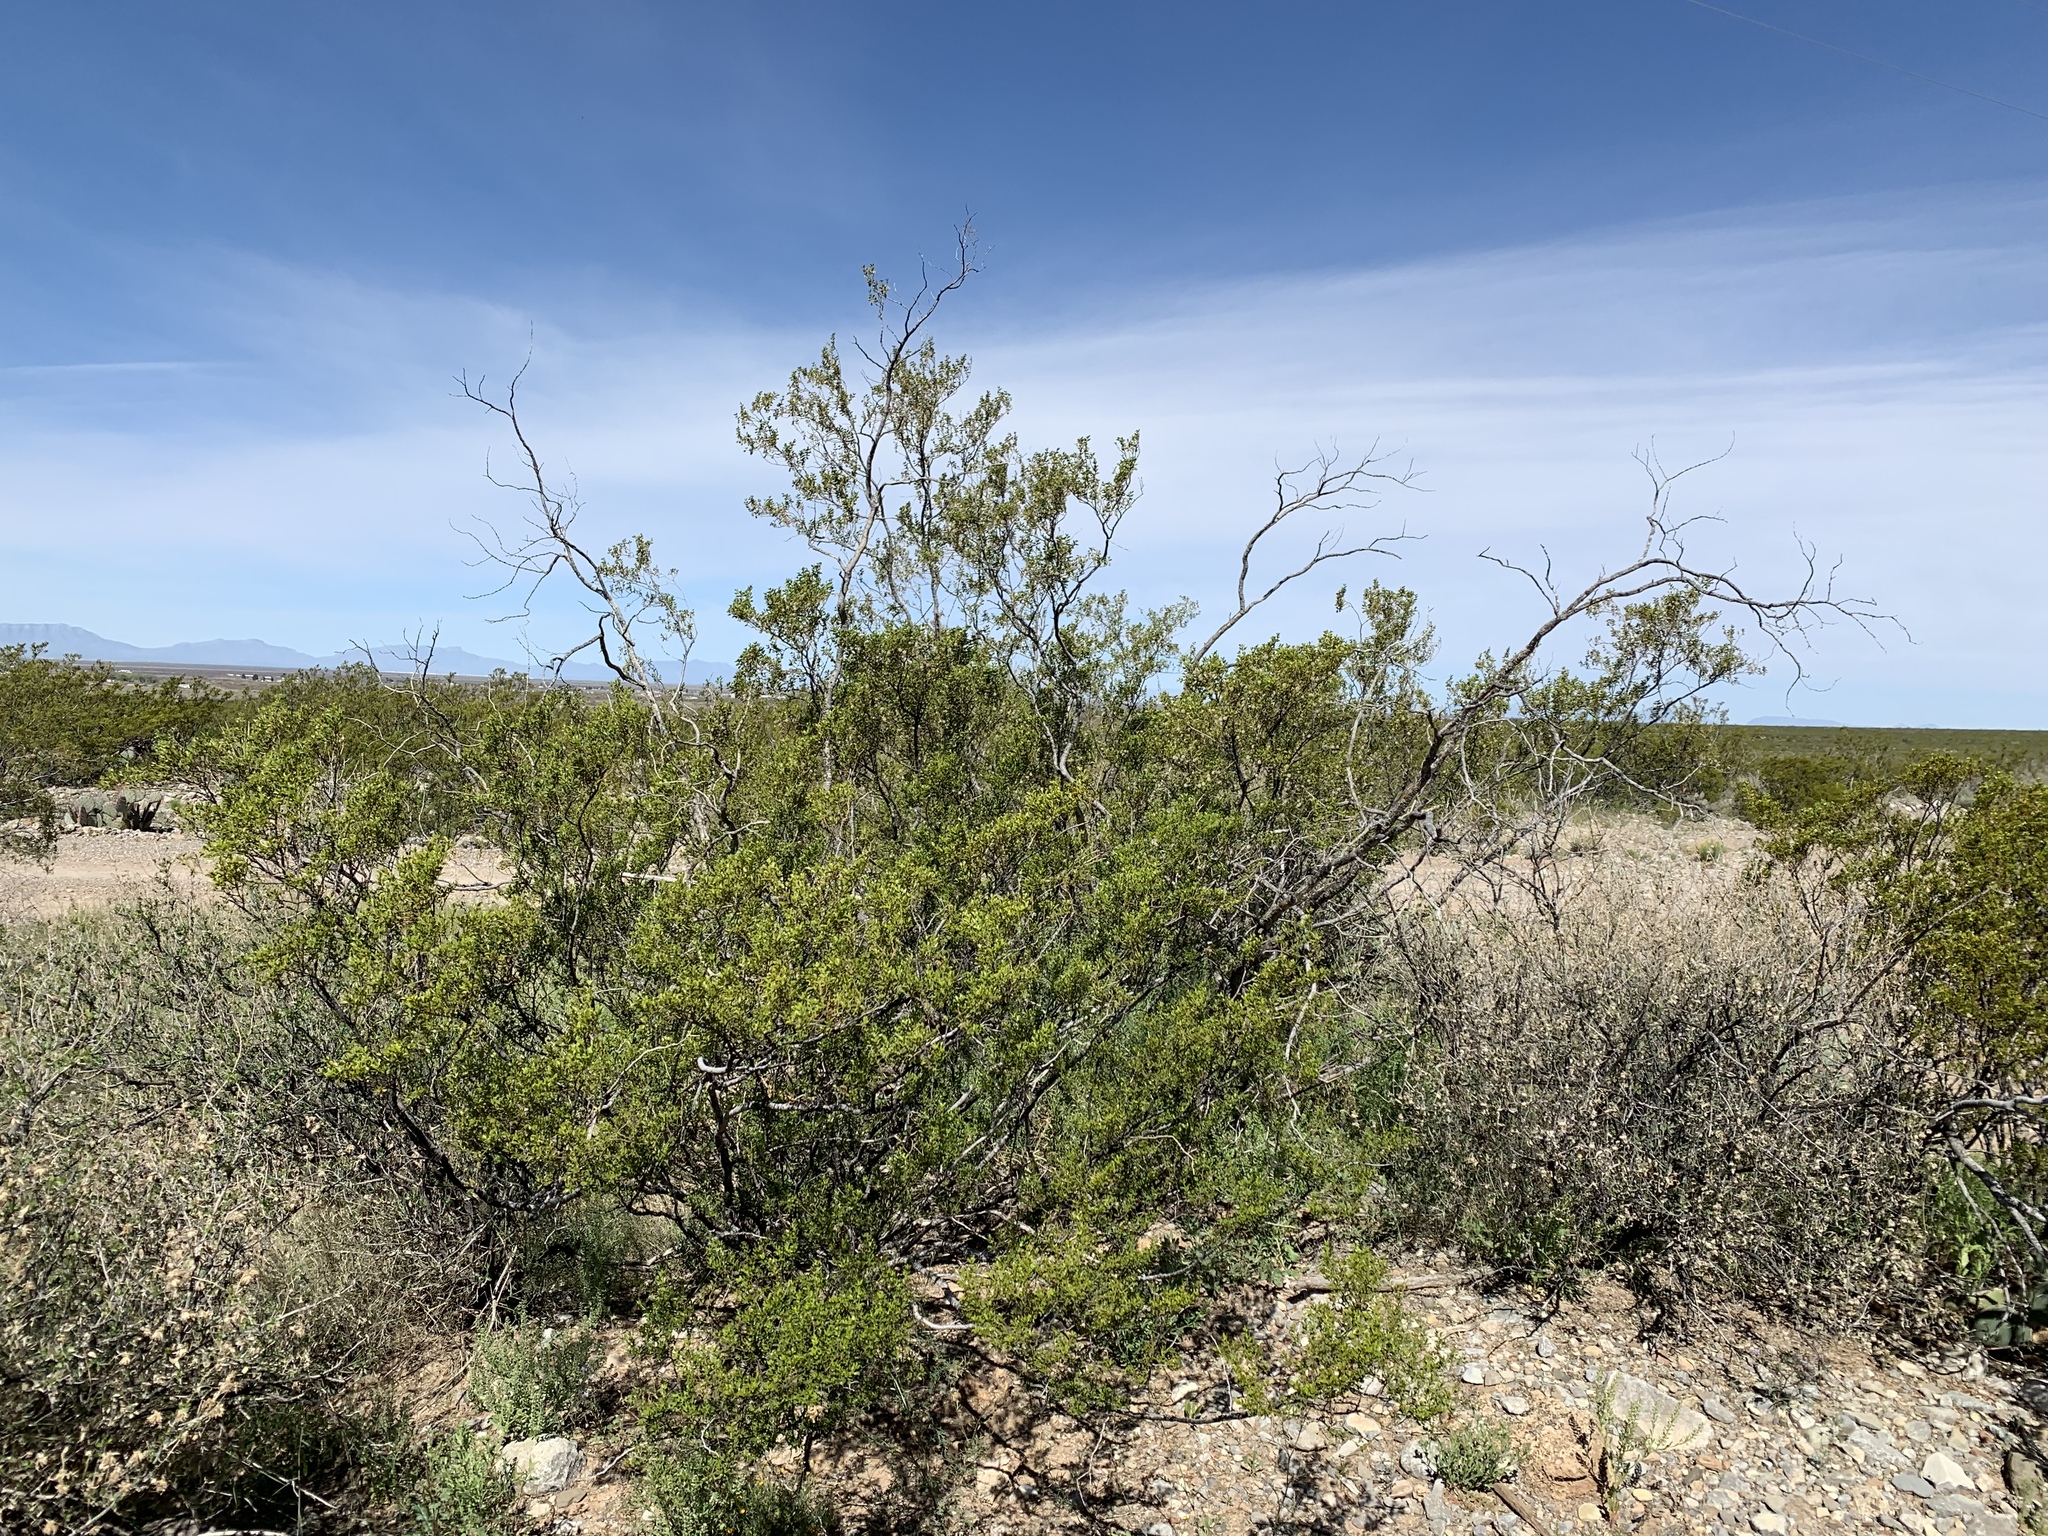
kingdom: Plantae
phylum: Tracheophyta
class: Magnoliopsida
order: Zygophyllales
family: Zygophyllaceae
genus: Larrea
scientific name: Larrea tridentata
